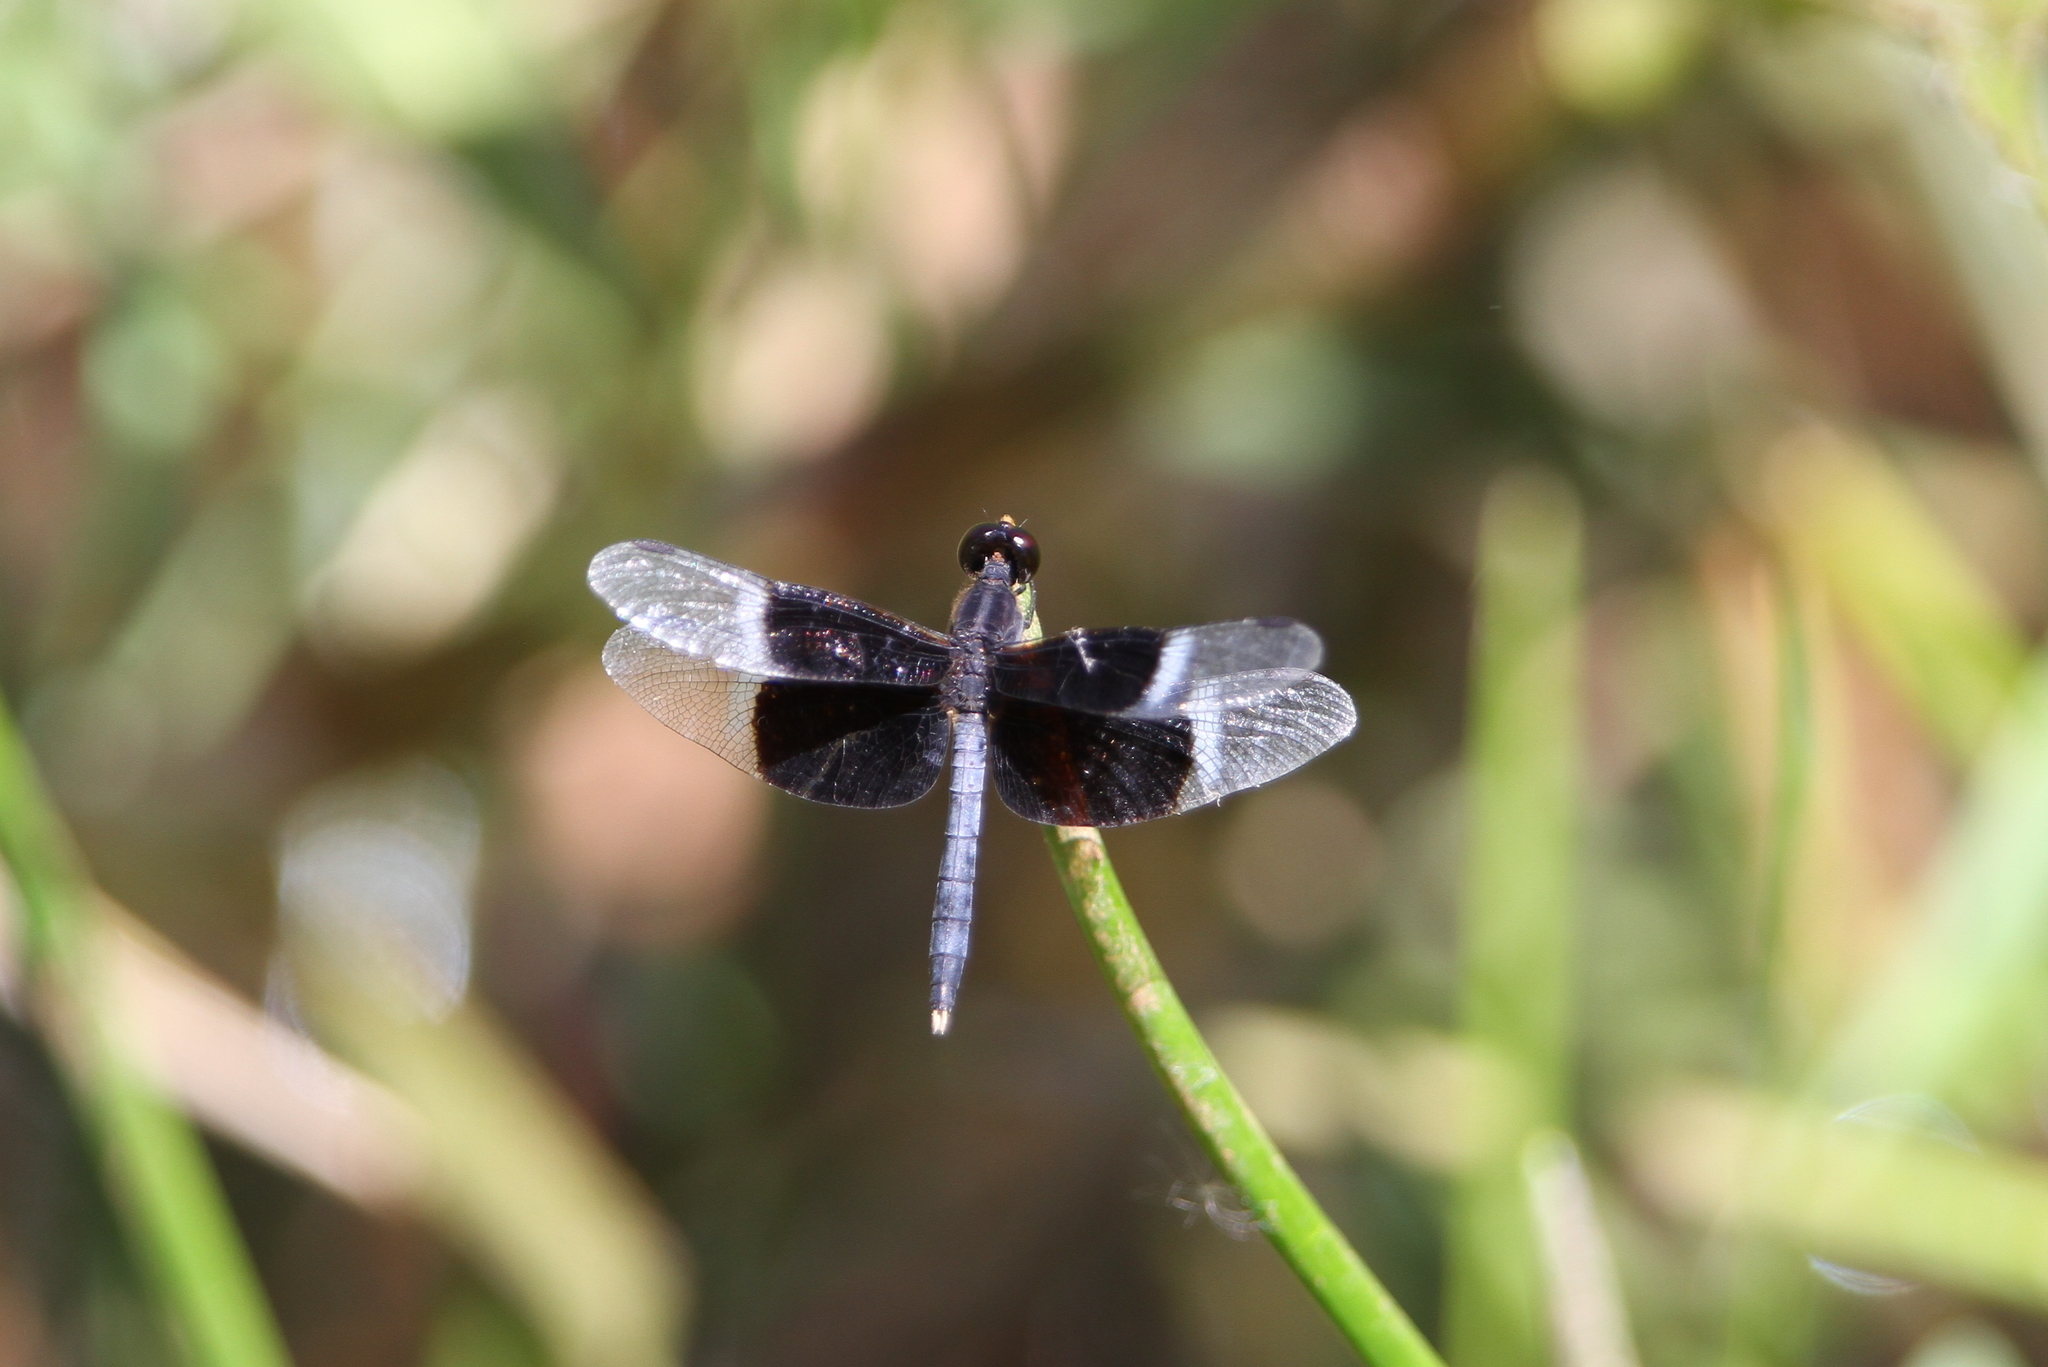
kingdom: Animalia
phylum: Arthropoda
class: Insecta
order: Odonata
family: Libellulidae
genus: Neurothemis
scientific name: Neurothemis tullia
